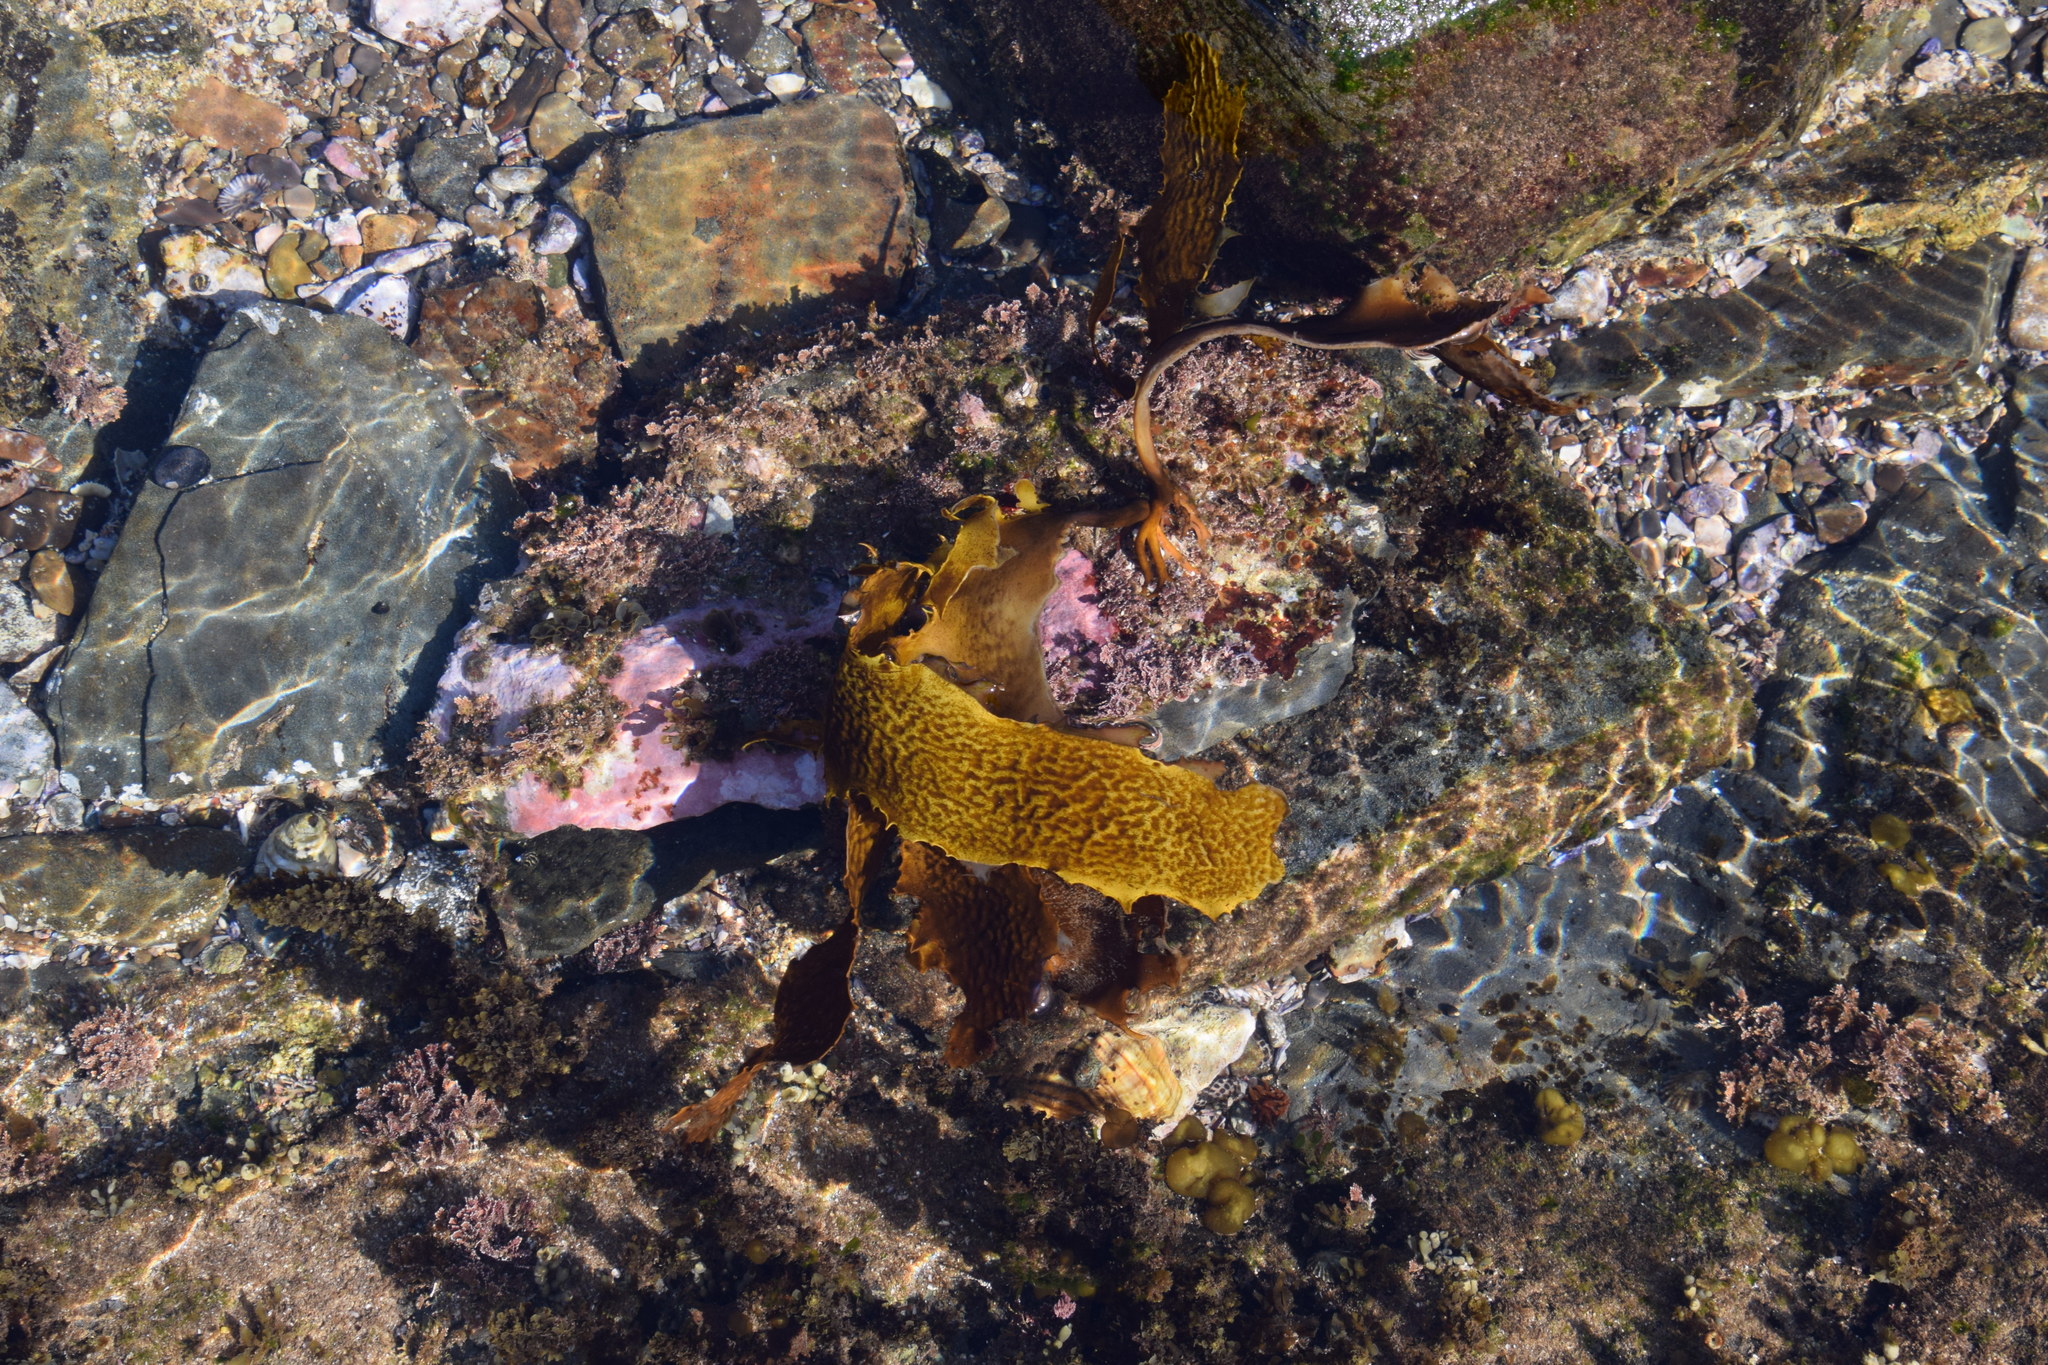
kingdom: Chromista
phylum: Ochrophyta
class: Phaeophyceae
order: Laminariales
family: Lessoniaceae
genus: Ecklonia
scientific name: Ecklonia radiata
